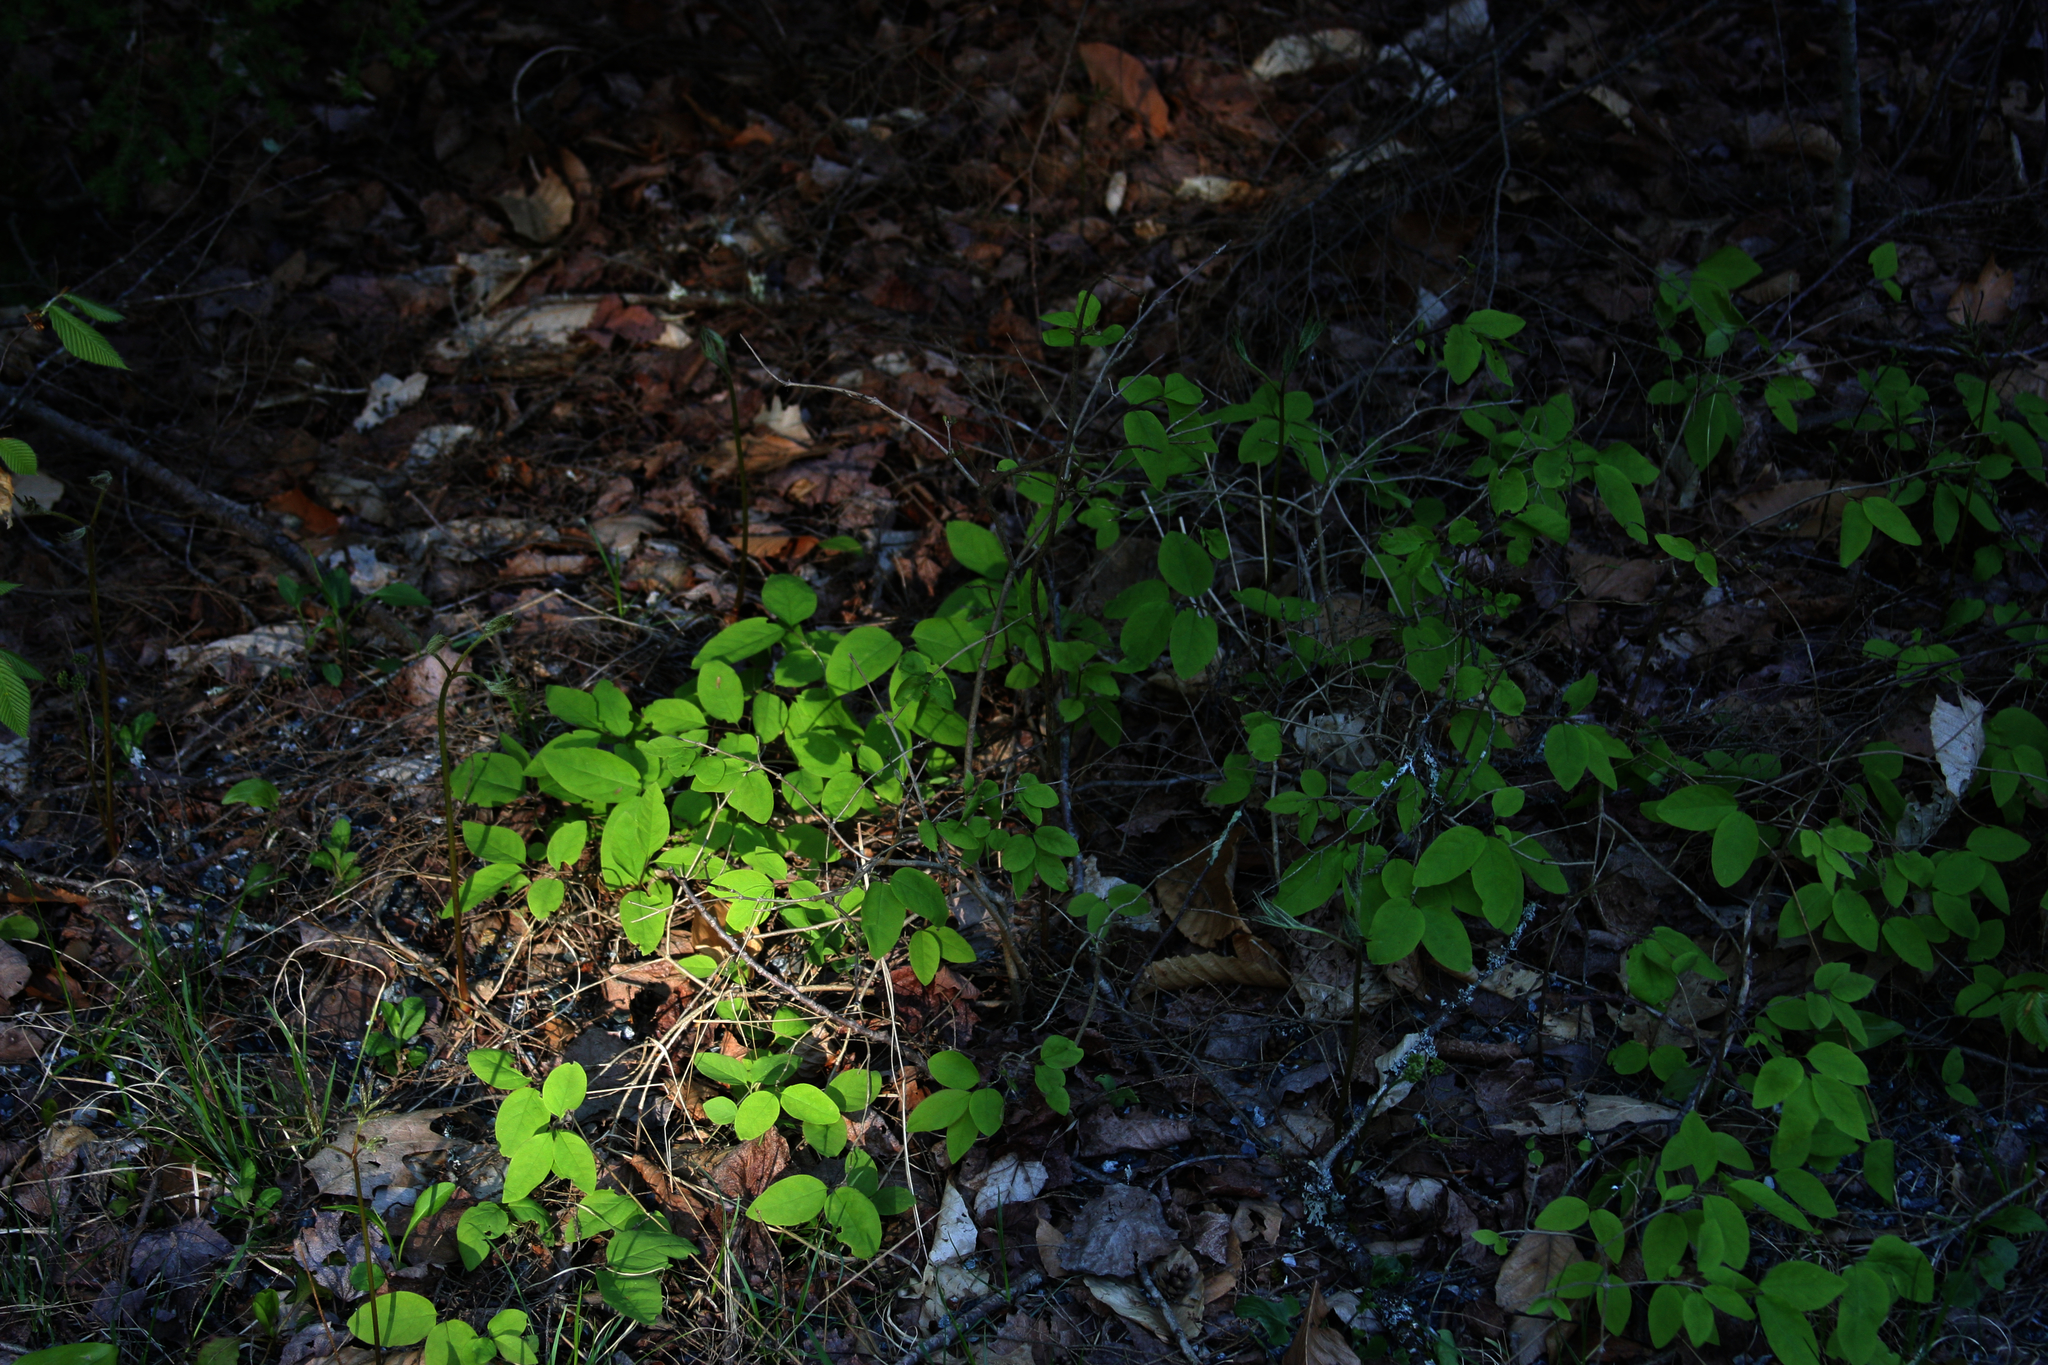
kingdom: Plantae
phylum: Tracheophyta
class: Magnoliopsida
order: Dipsacales
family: Caprifoliaceae
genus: Lonicera
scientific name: Lonicera canadensis
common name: American fly-honeysuckle
